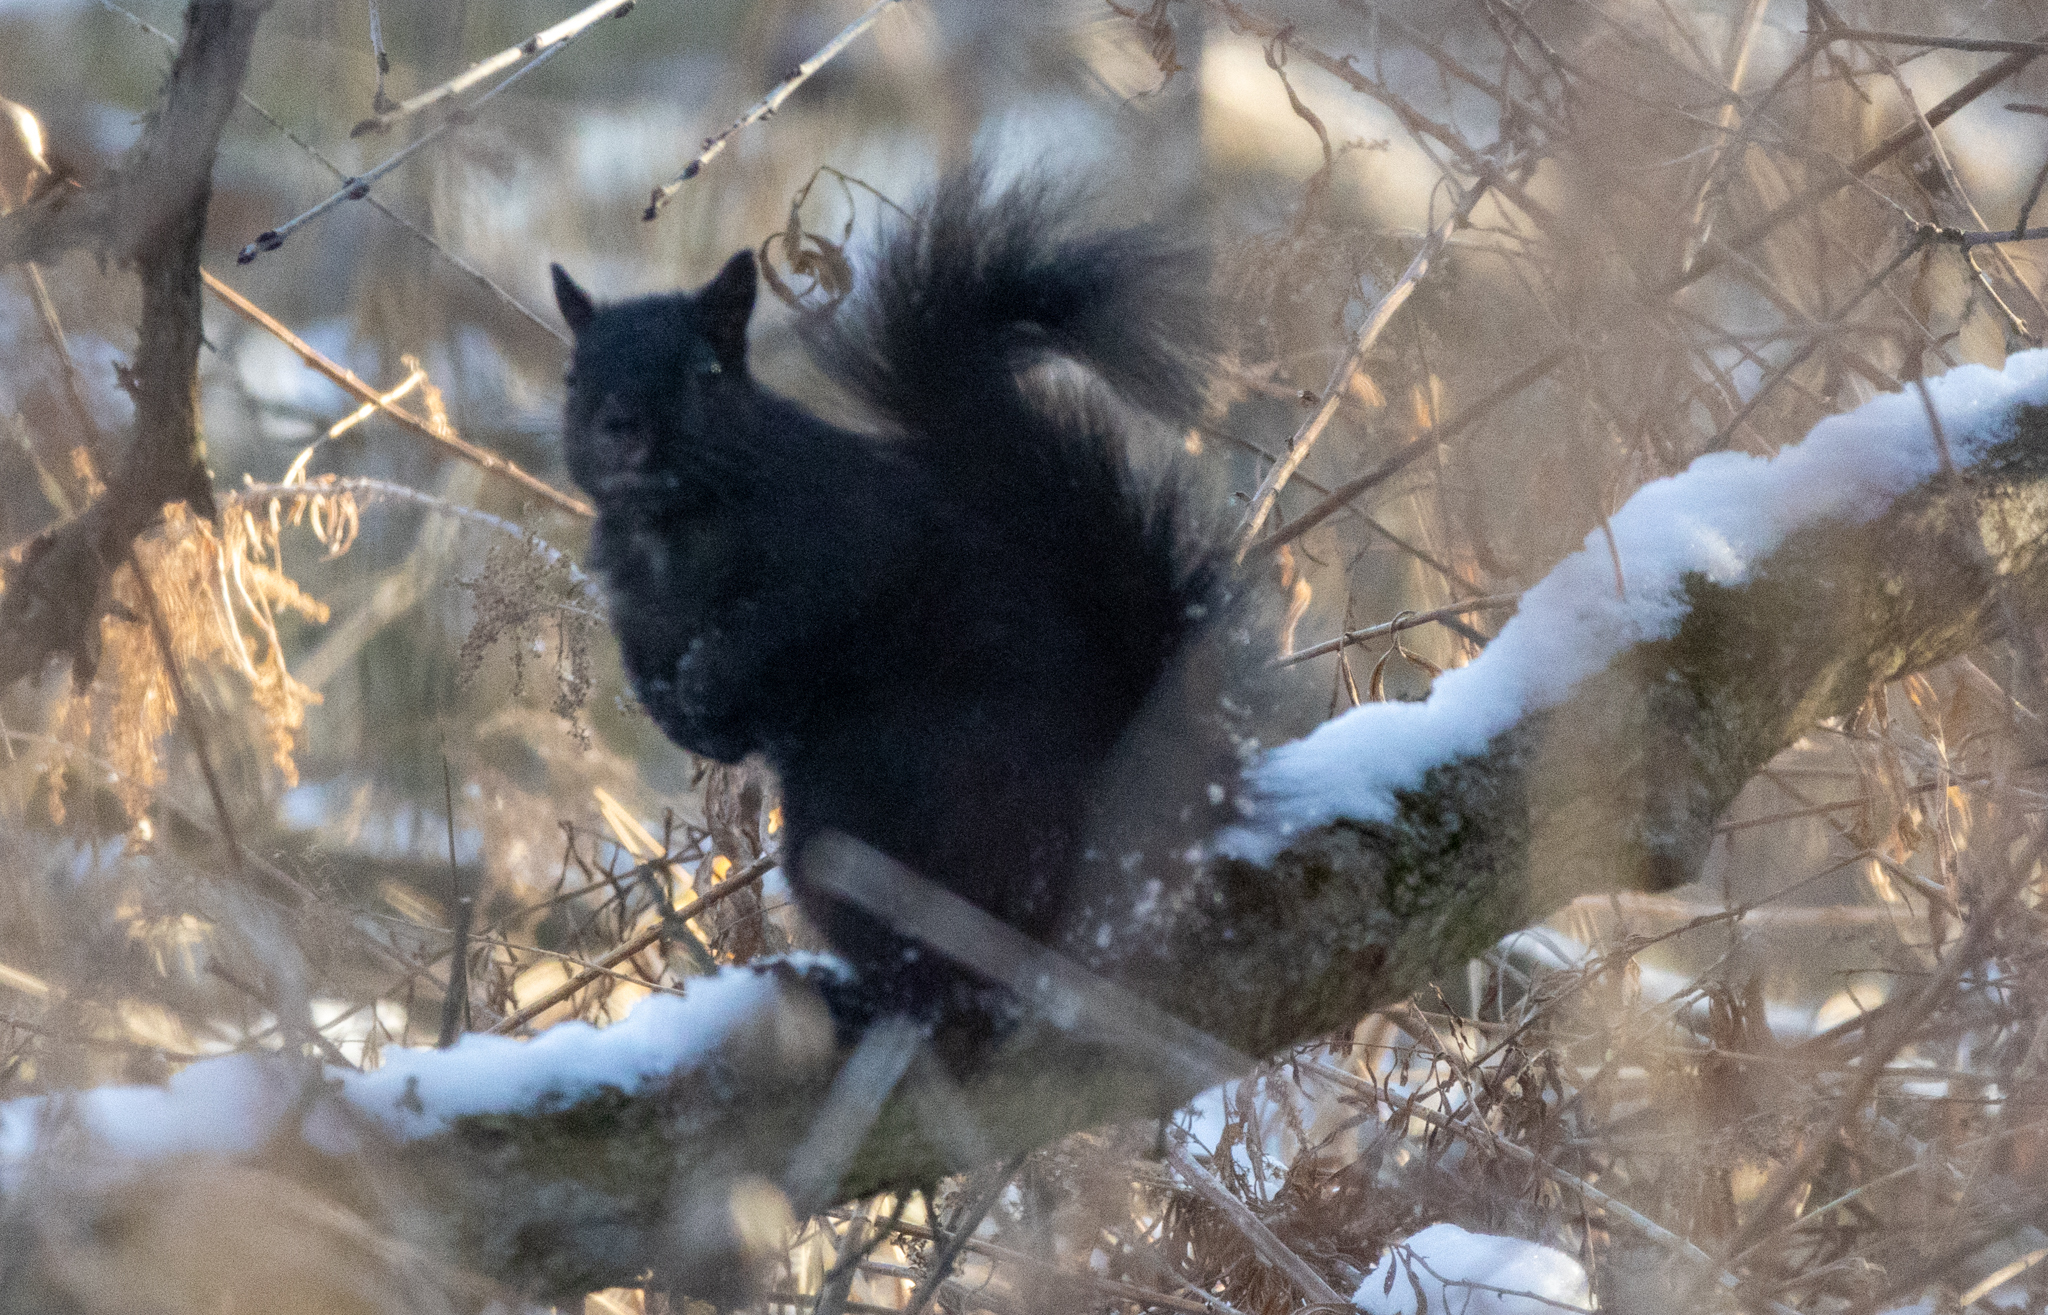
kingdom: Animalia
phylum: Chordata
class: Mammalia
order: Rodentia
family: Sciuridae
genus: Sciurus
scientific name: Sciurus carolinensis
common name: Eastern gray squirrel
